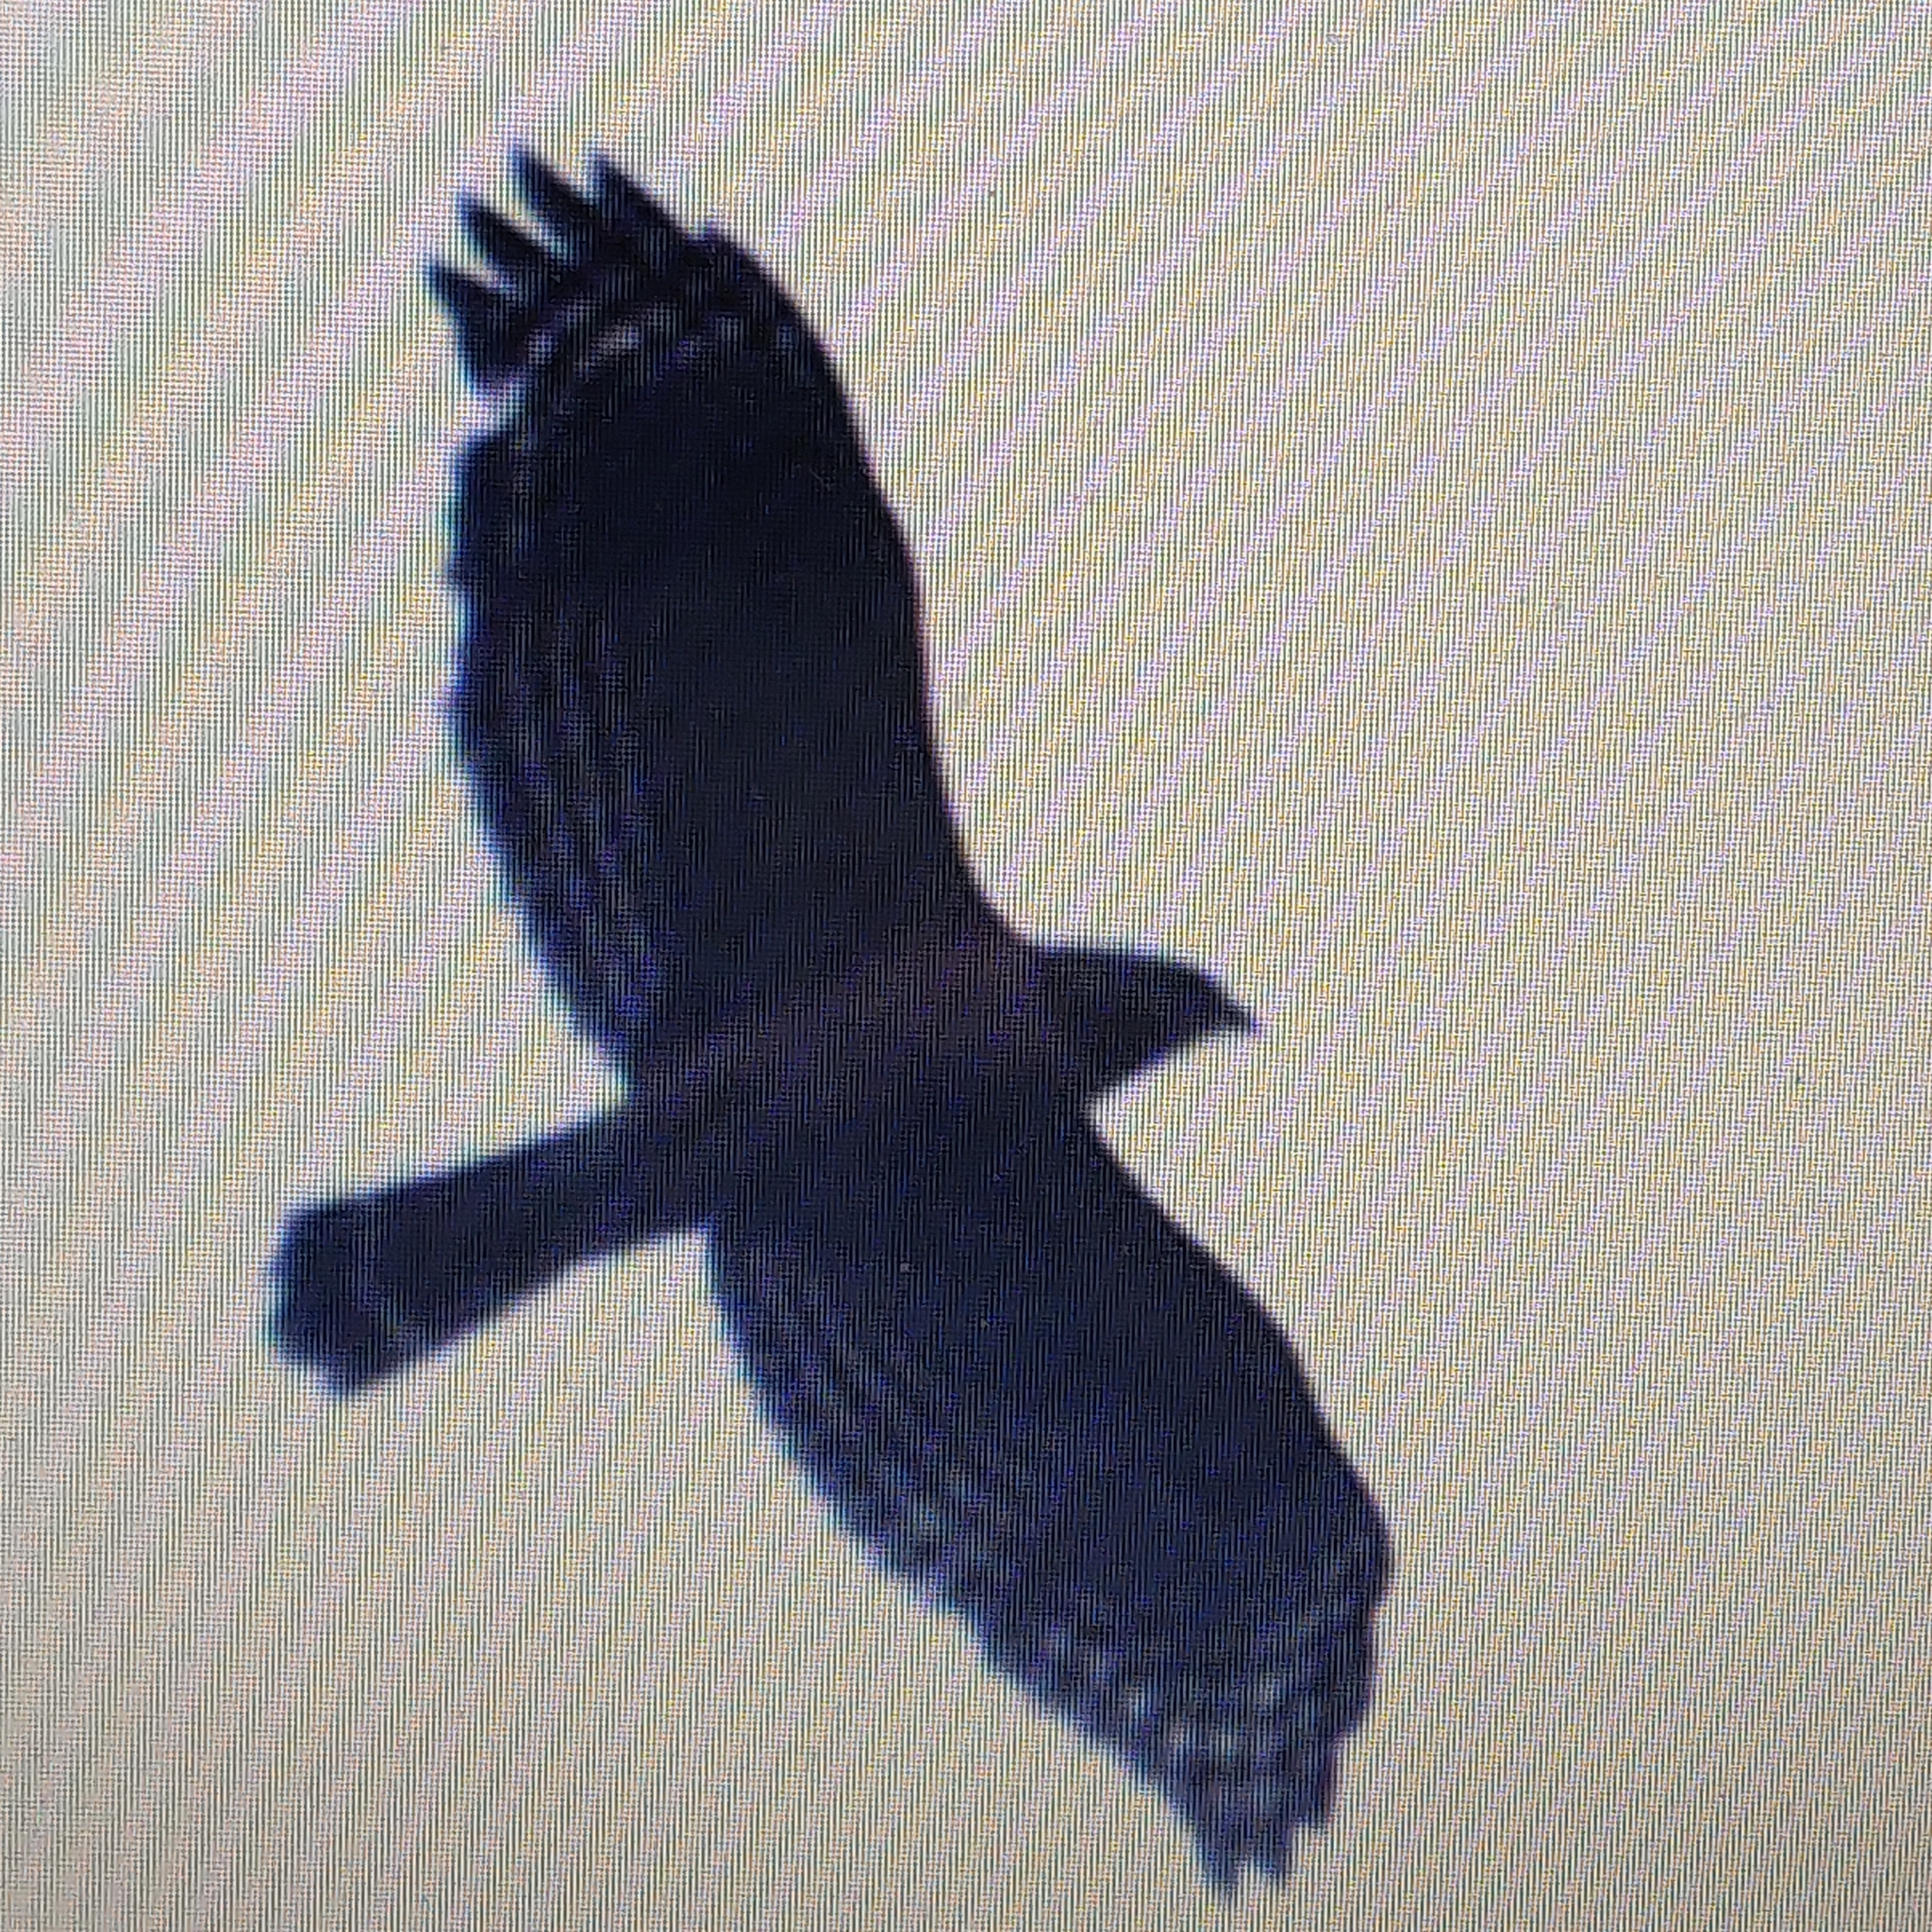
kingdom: Animalia
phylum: Chordata
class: Aves
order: Accipitriformes
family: Accipitridae
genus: Buteo
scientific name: Buteo lineatus
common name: Red-shouldered hawk
